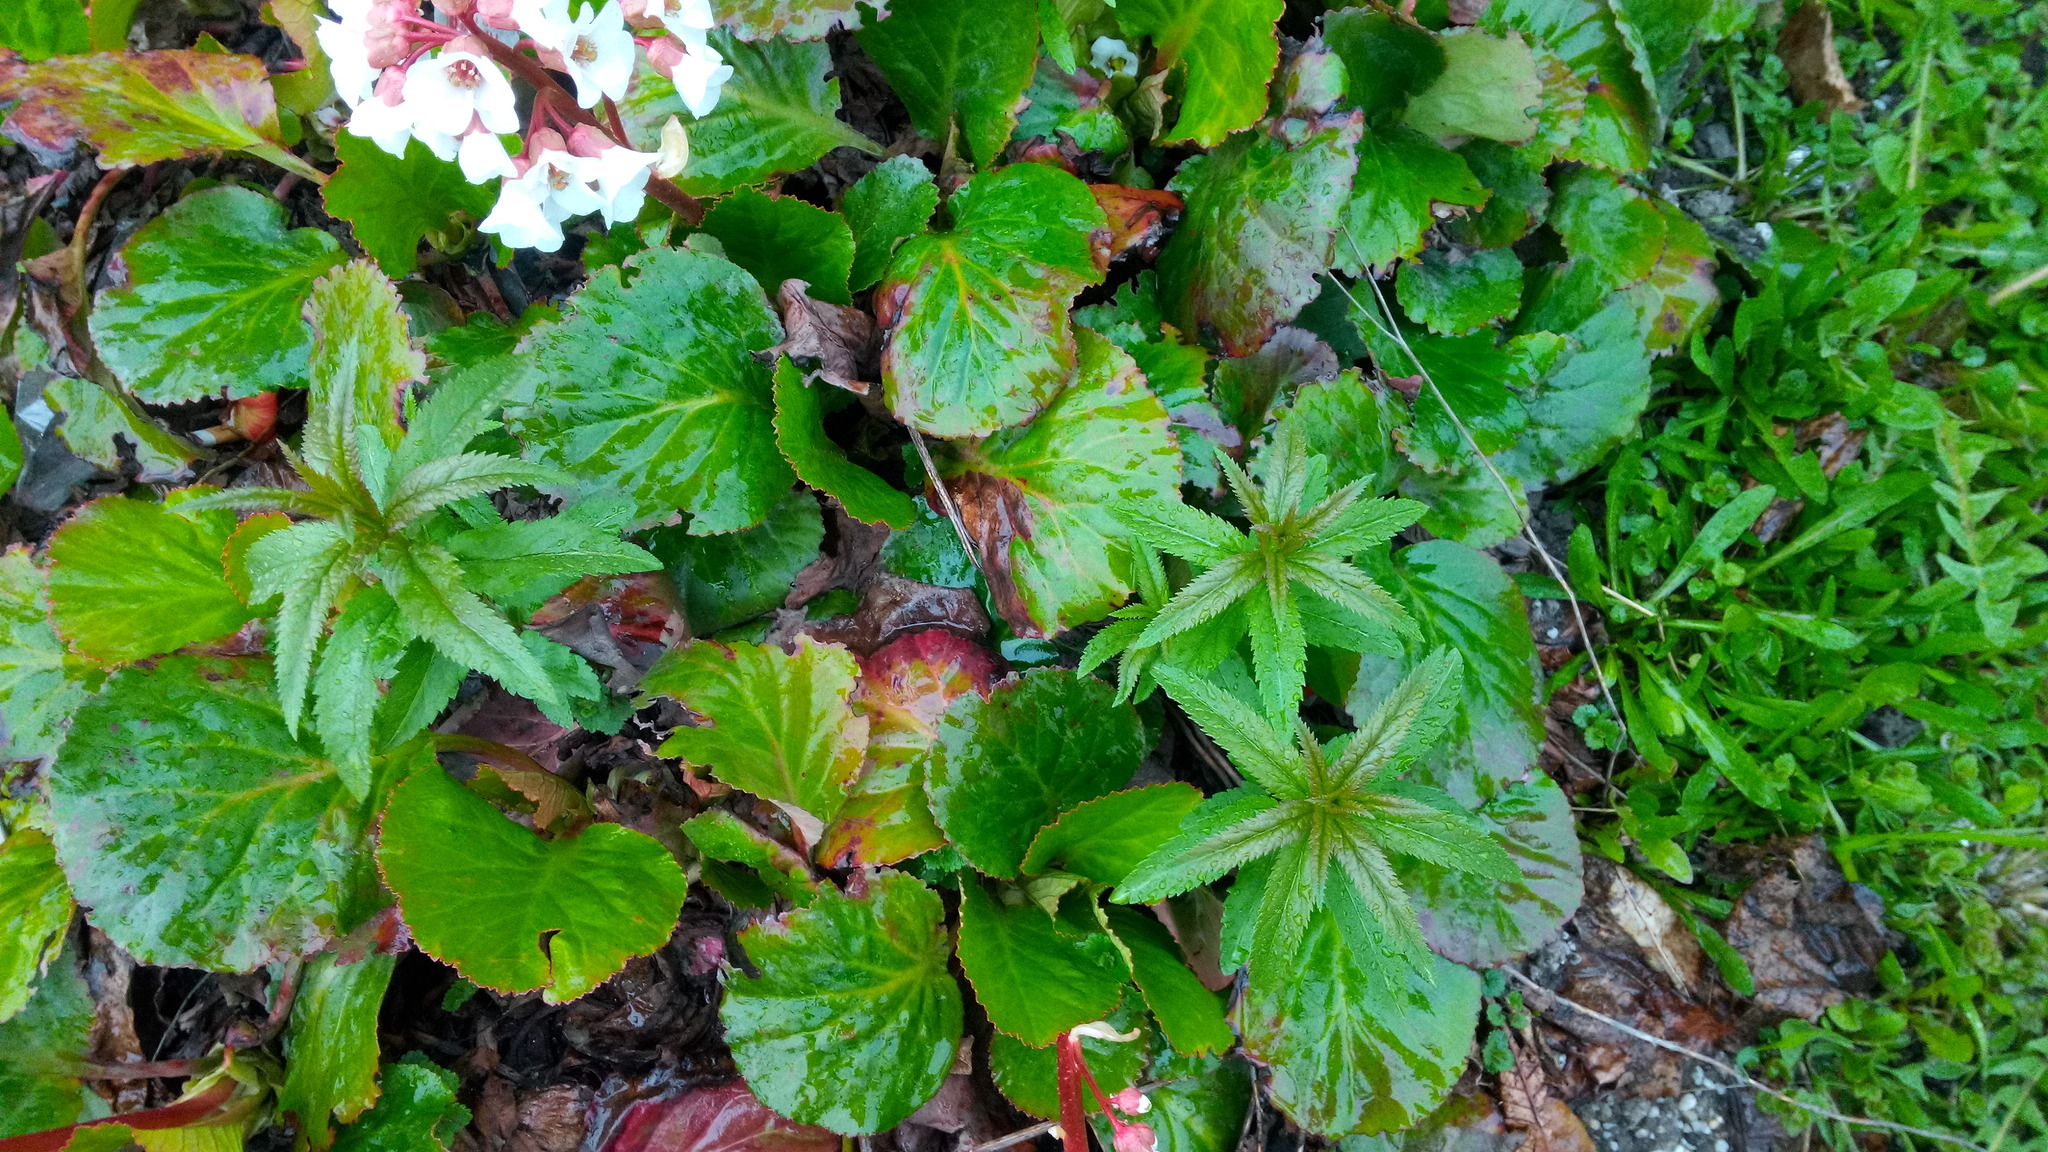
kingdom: Plantae
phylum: Tracheophyta
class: Magnoliopsida
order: Lamiales
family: Plantaginaceae
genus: Veronica
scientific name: Veronica longifolia
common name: Garden speedwell
